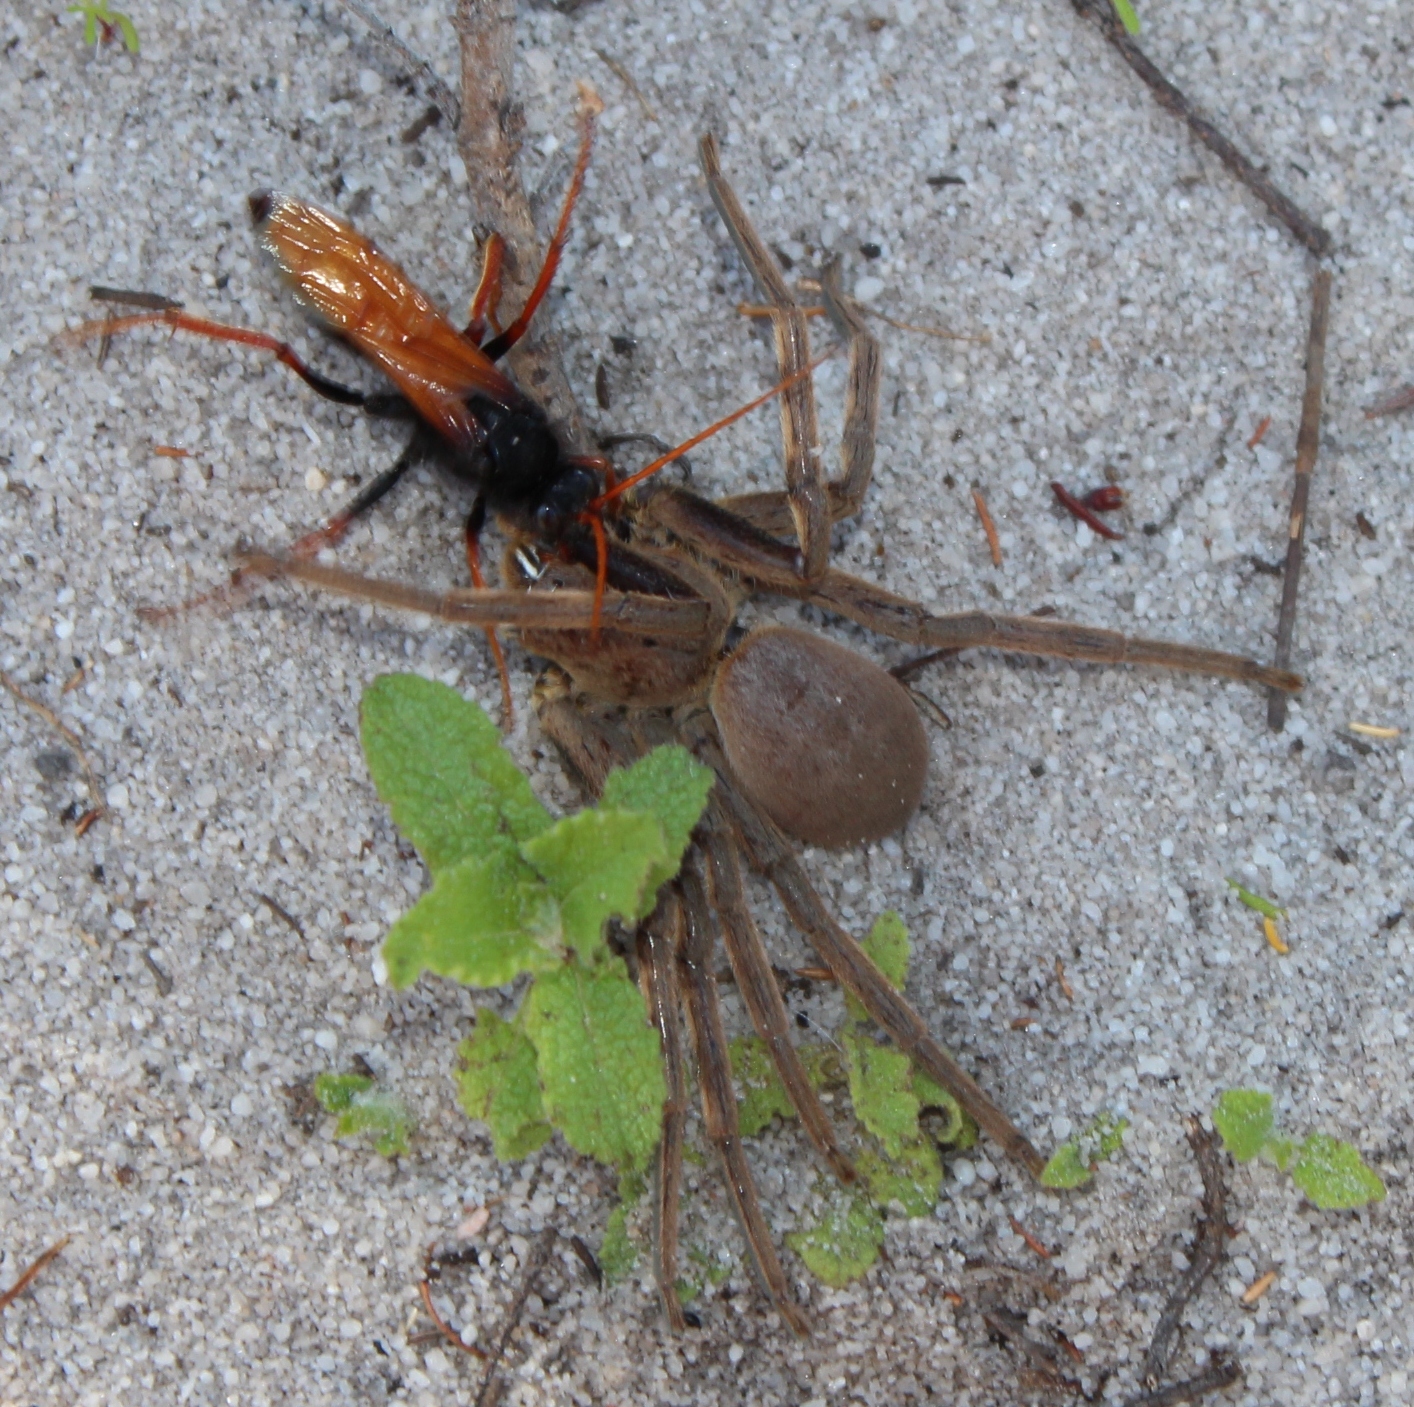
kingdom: Animalia
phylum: Arthropoda
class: Arachnida
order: Araneae
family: Sparassidae
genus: Palystes
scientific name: Palystes castaneus
